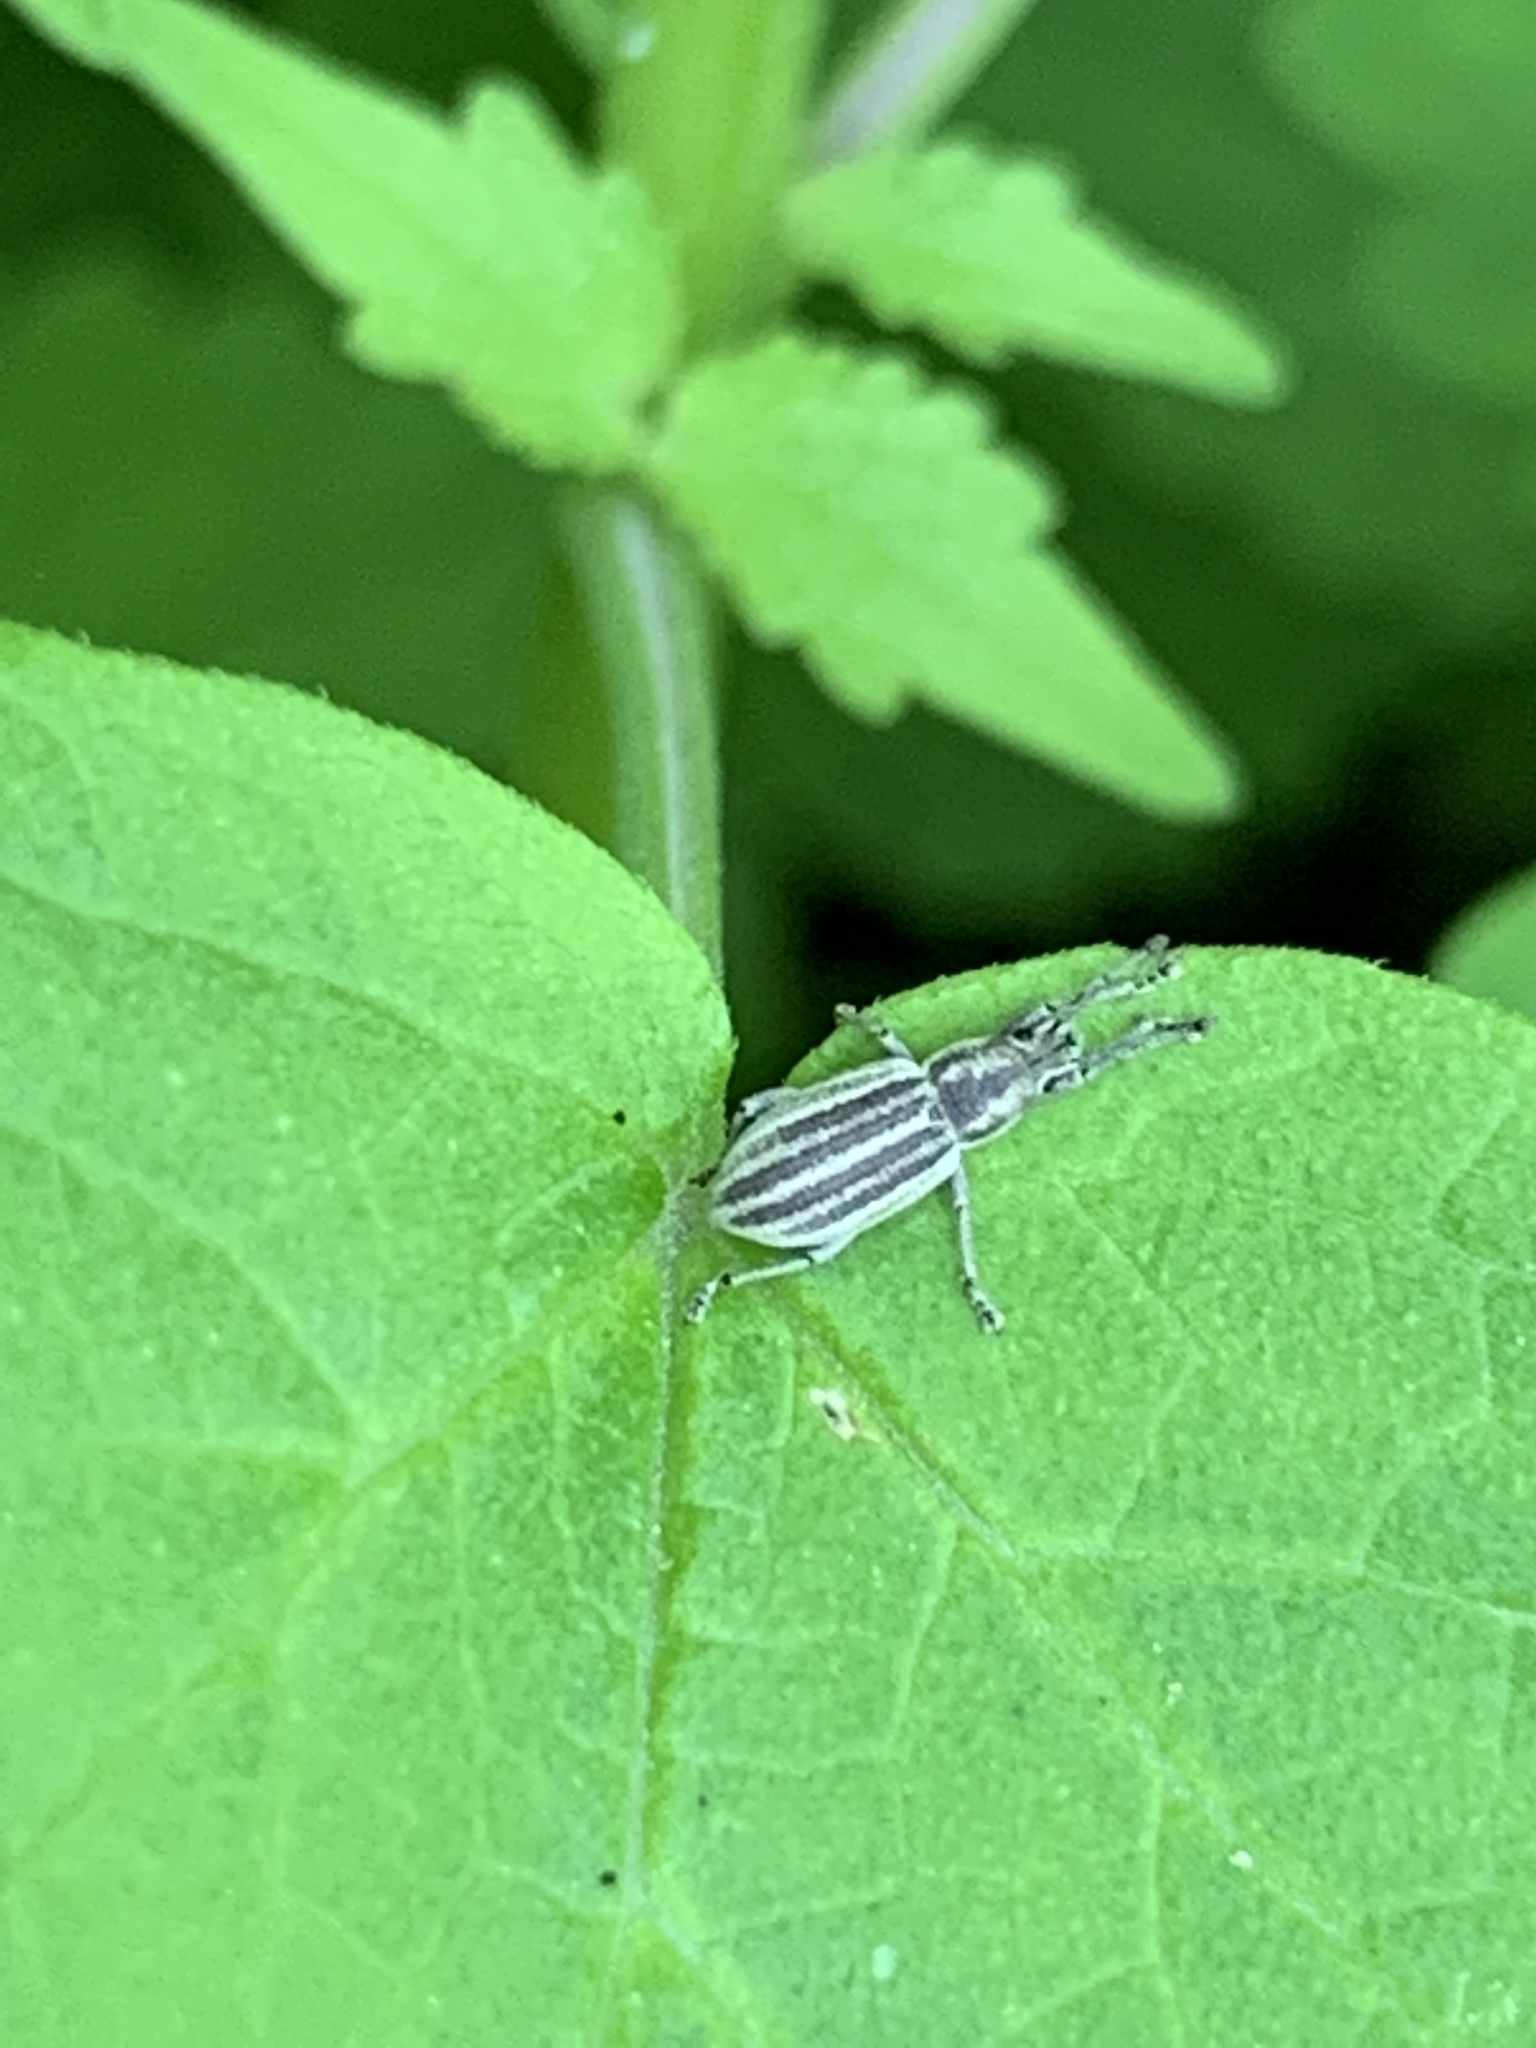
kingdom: Animalia
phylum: Arthropoda
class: Insecta
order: Coleoptera
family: Curculionidae
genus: Aphrastus
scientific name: Aphrastus taeniatus
